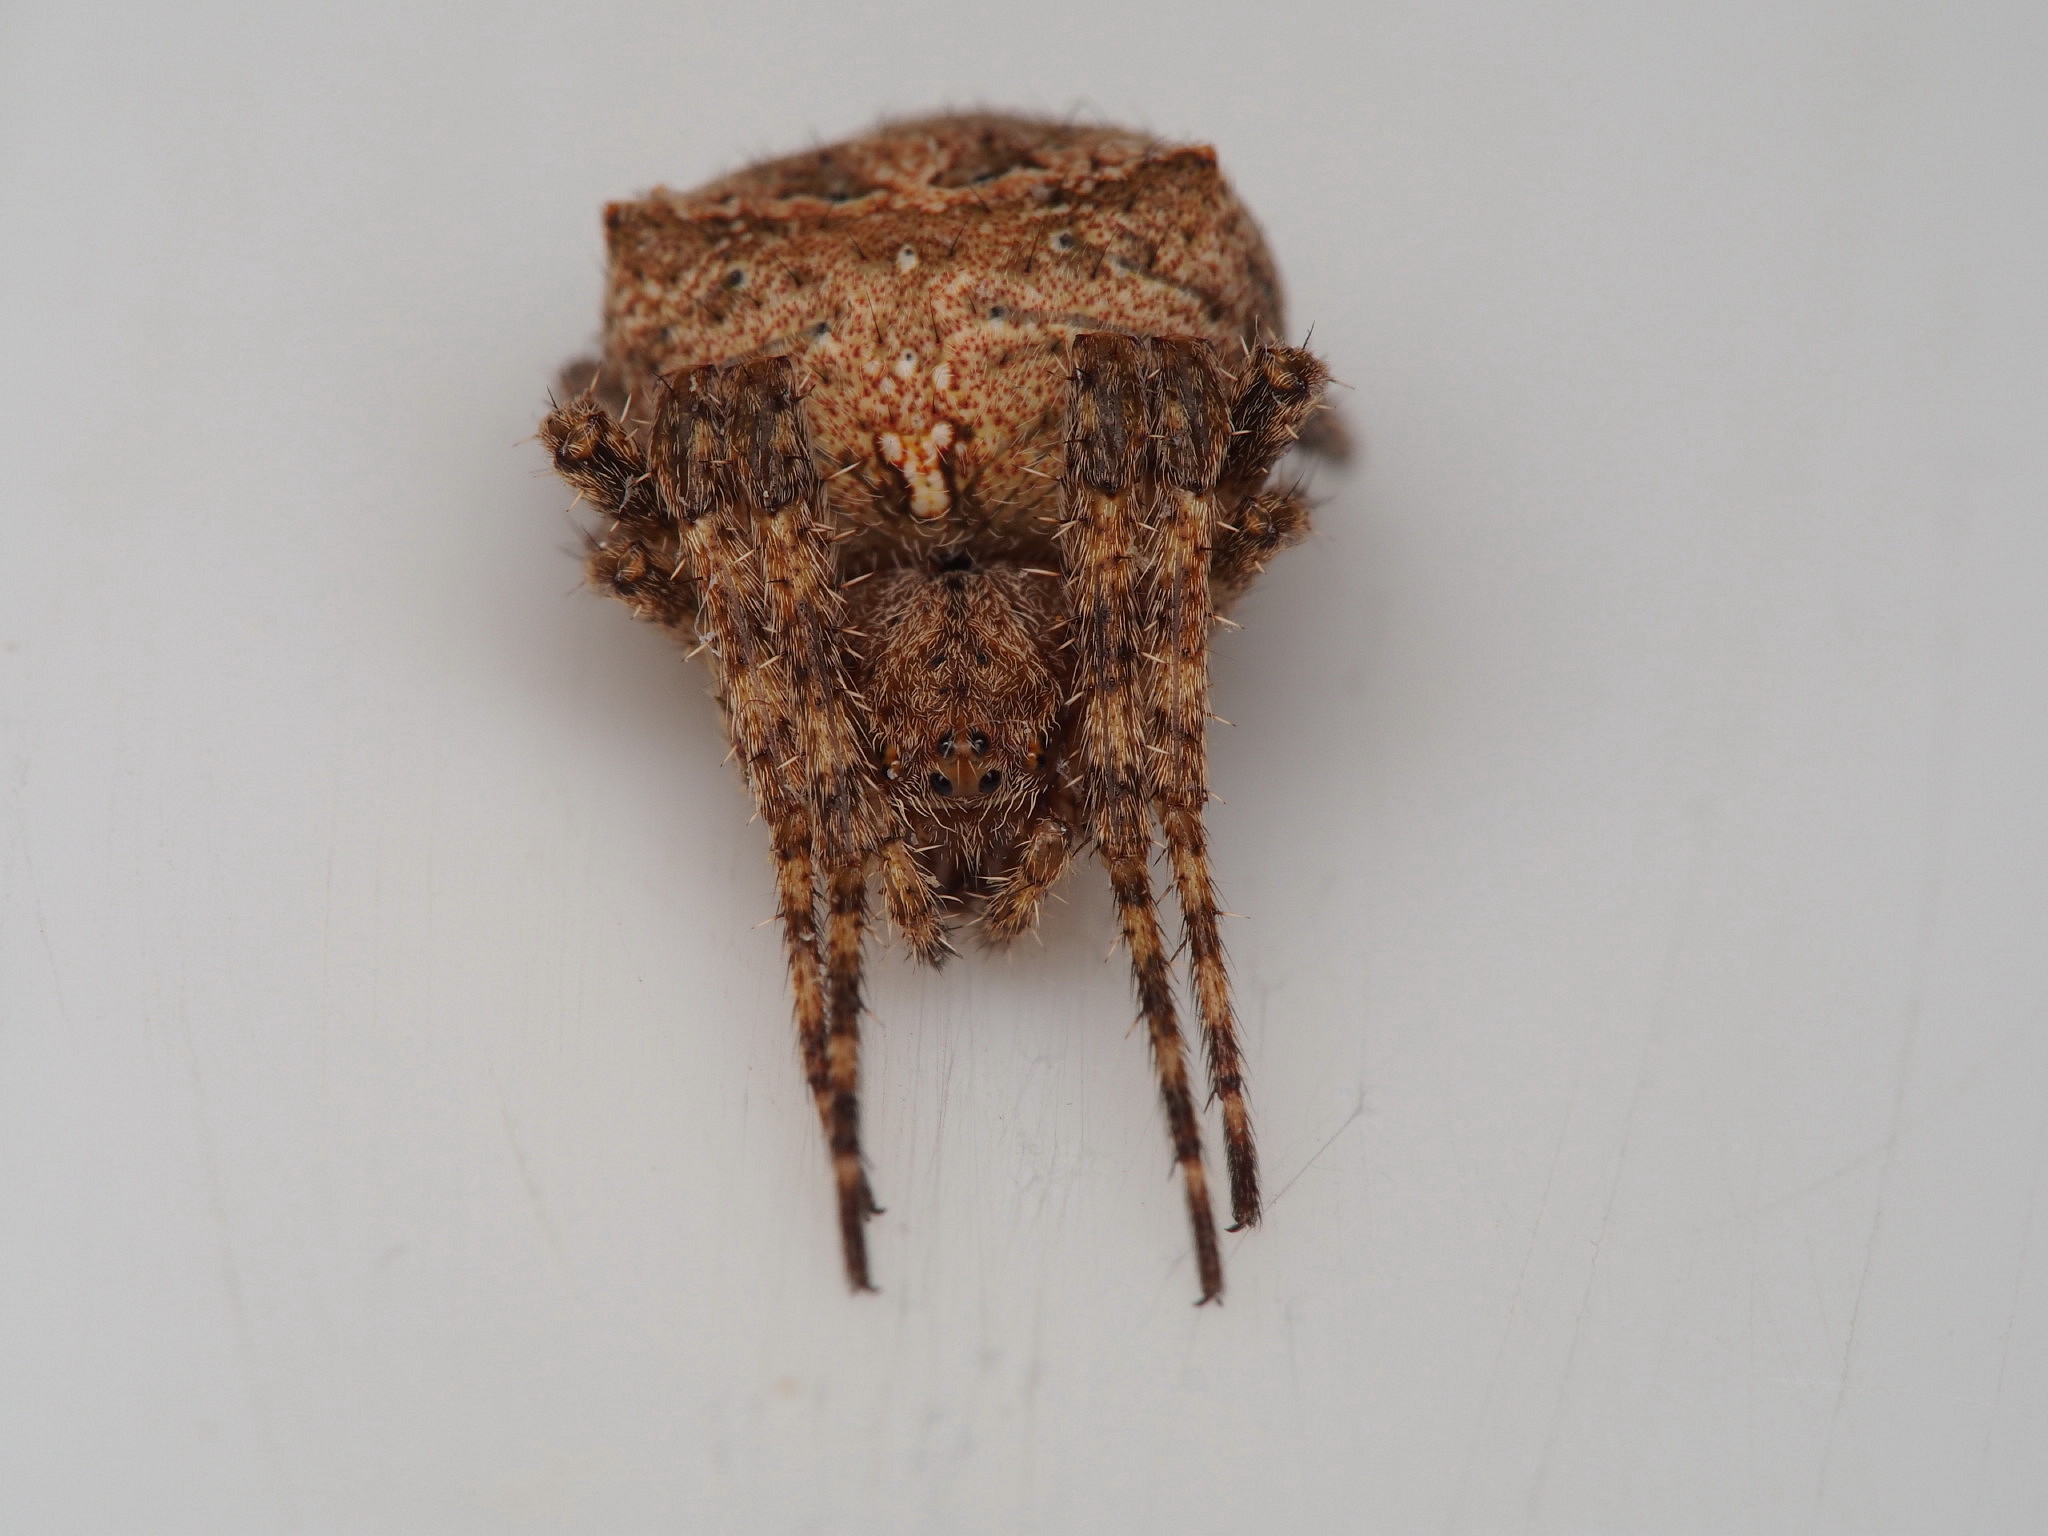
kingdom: Animalia
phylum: Arthropoda
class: Arachnida
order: Araneae
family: Araneidae
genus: Novakiella
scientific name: Novakiella trituberculosa
